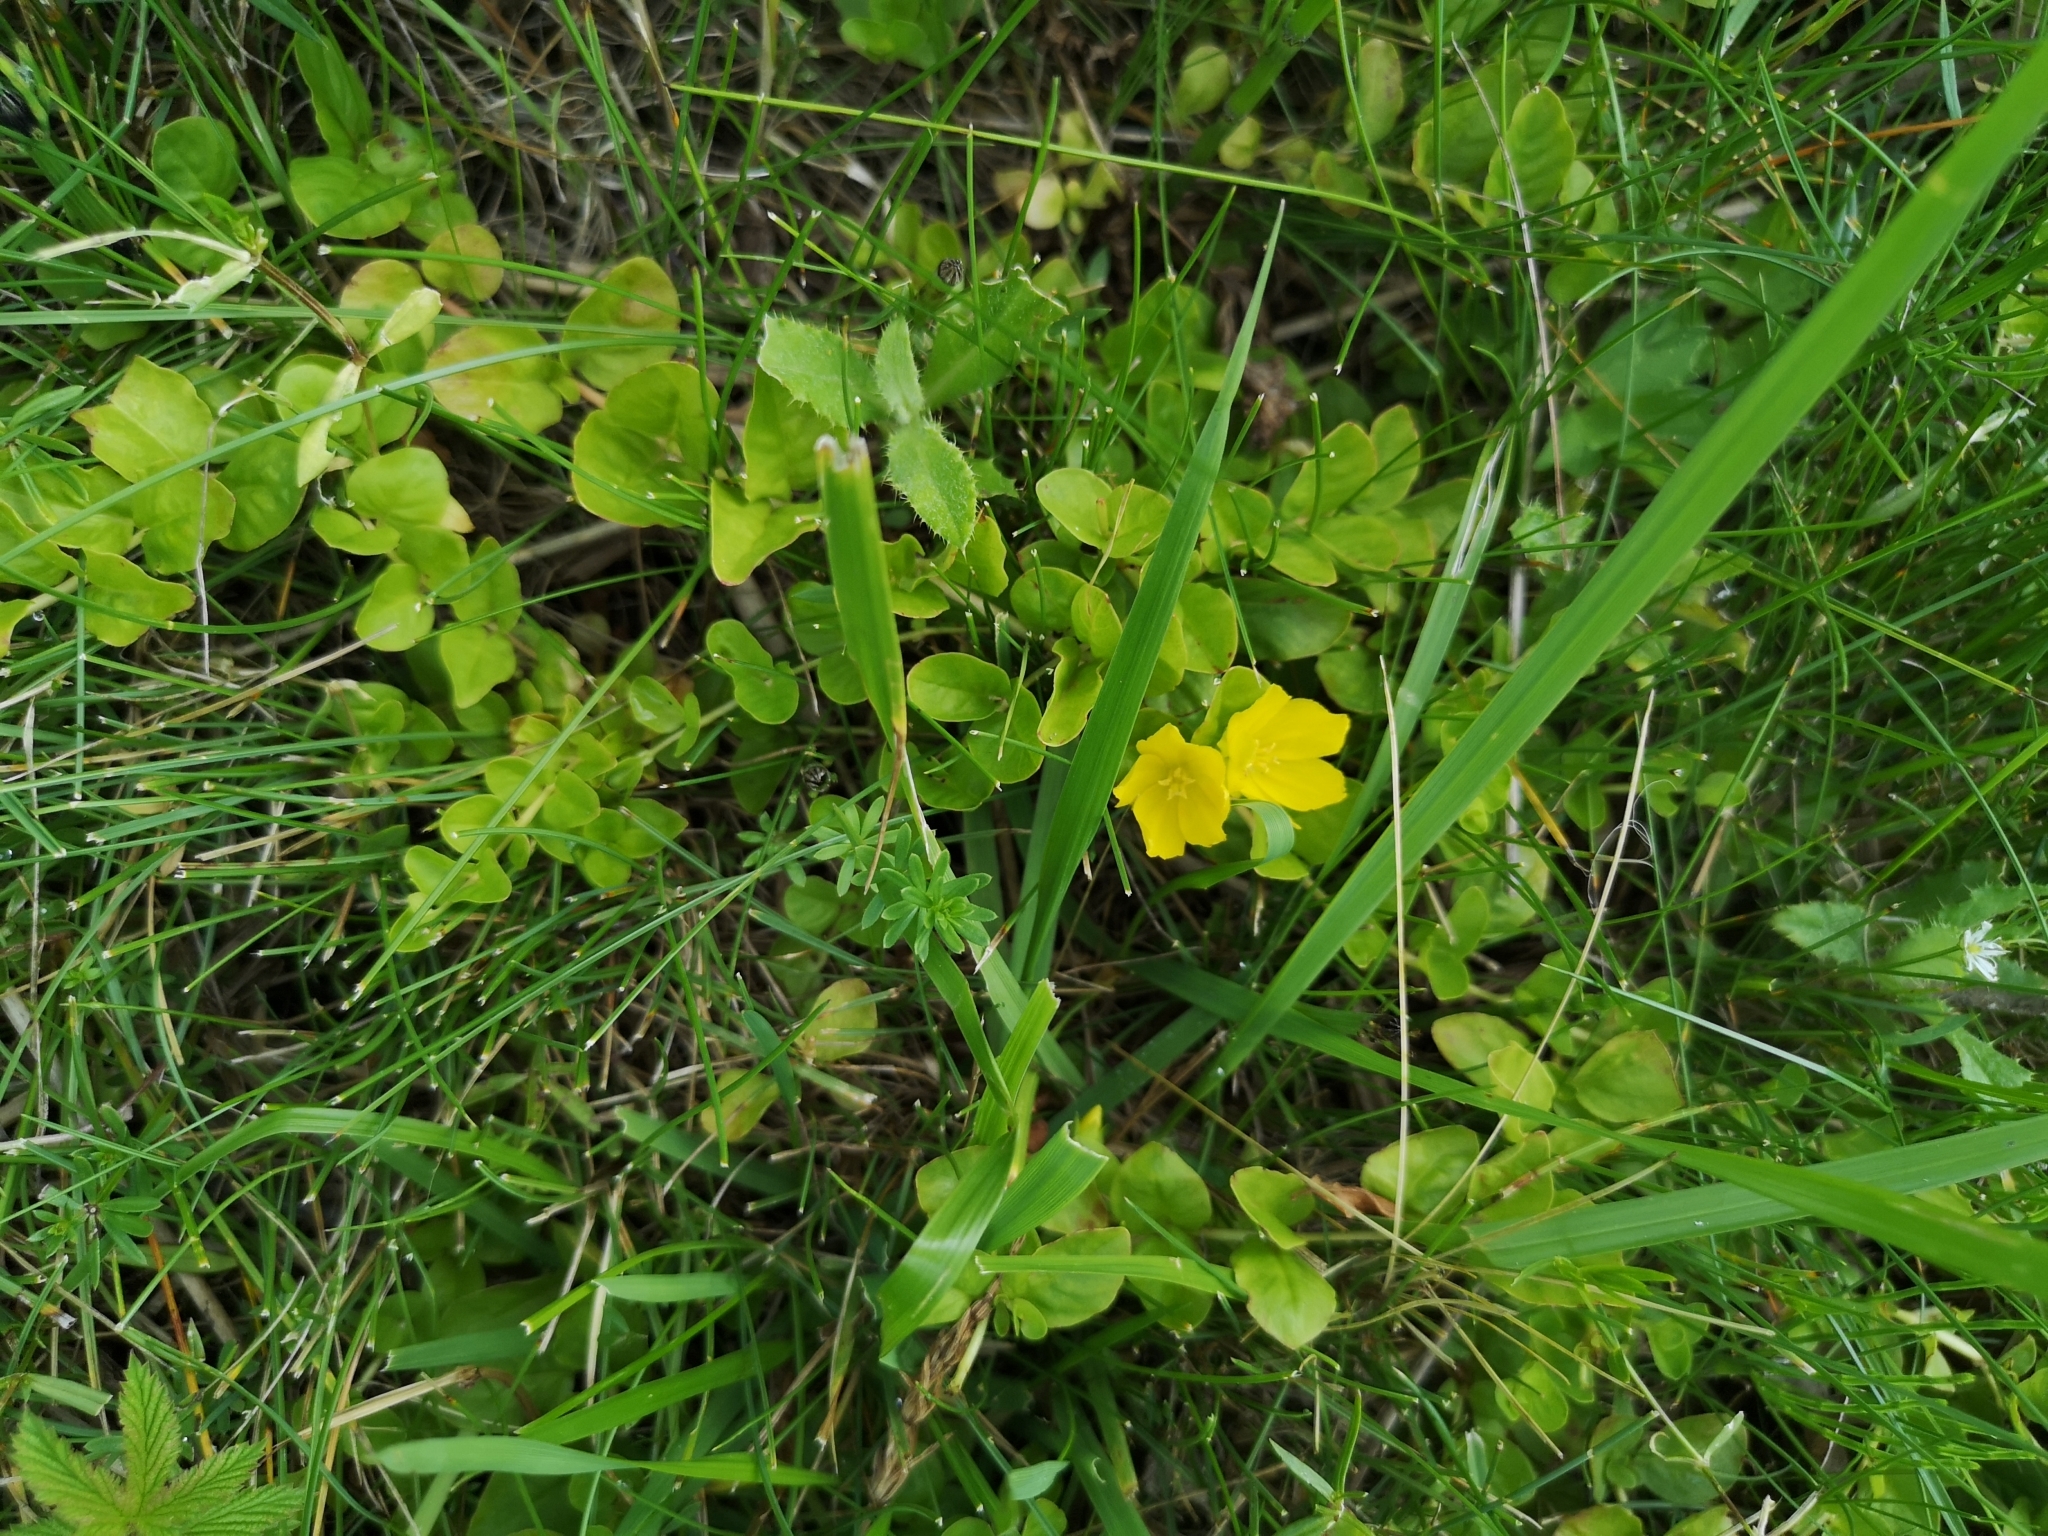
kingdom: Plantae
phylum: Tracheophyta
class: Magnoliopsida
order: Ericales
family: Primulaceae
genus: Lysimachia
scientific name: Lysimachia nummularia
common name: Moneywort
